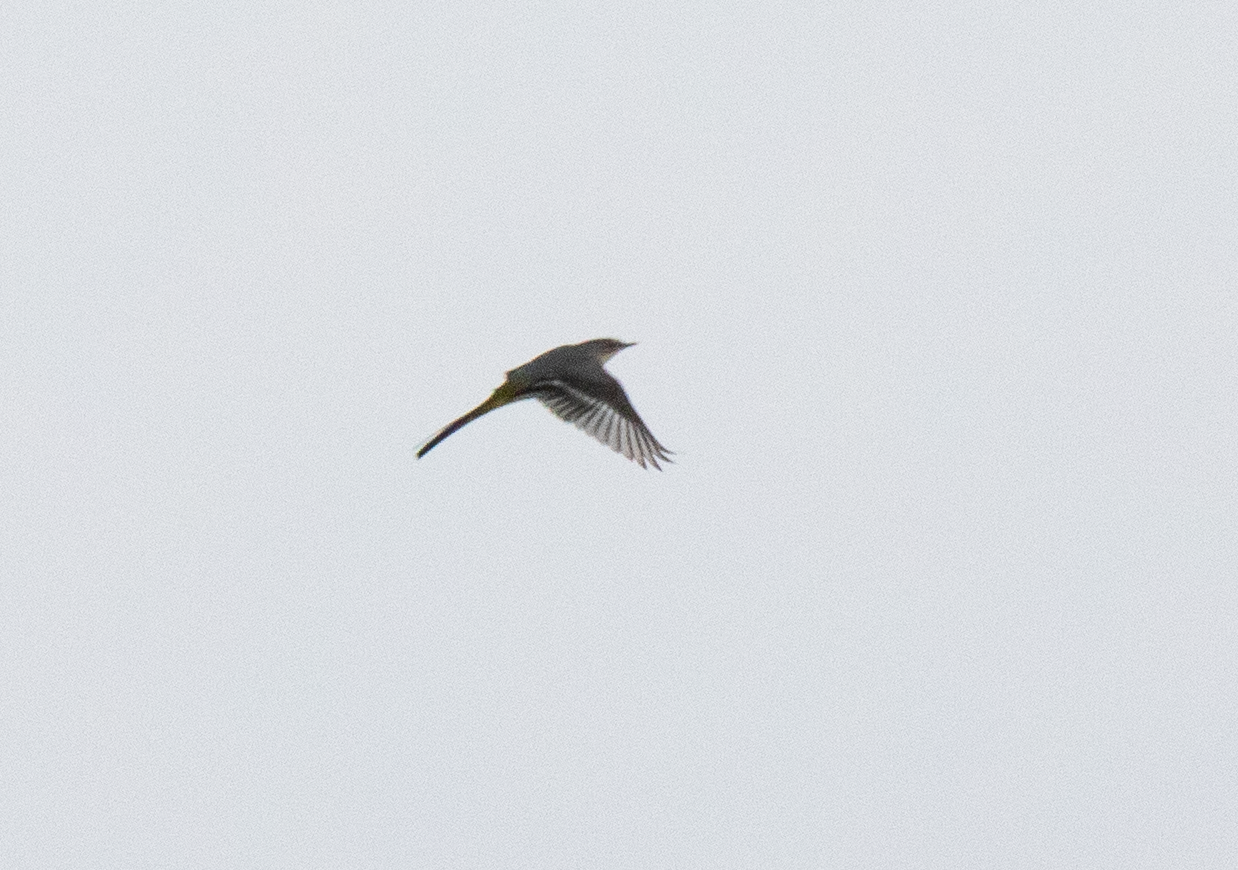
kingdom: Animalia
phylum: Chordata
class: Aves
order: Passeriformes
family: Motacillidae
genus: Motacilla
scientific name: Motacilla cinerea
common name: Grey wagtail
